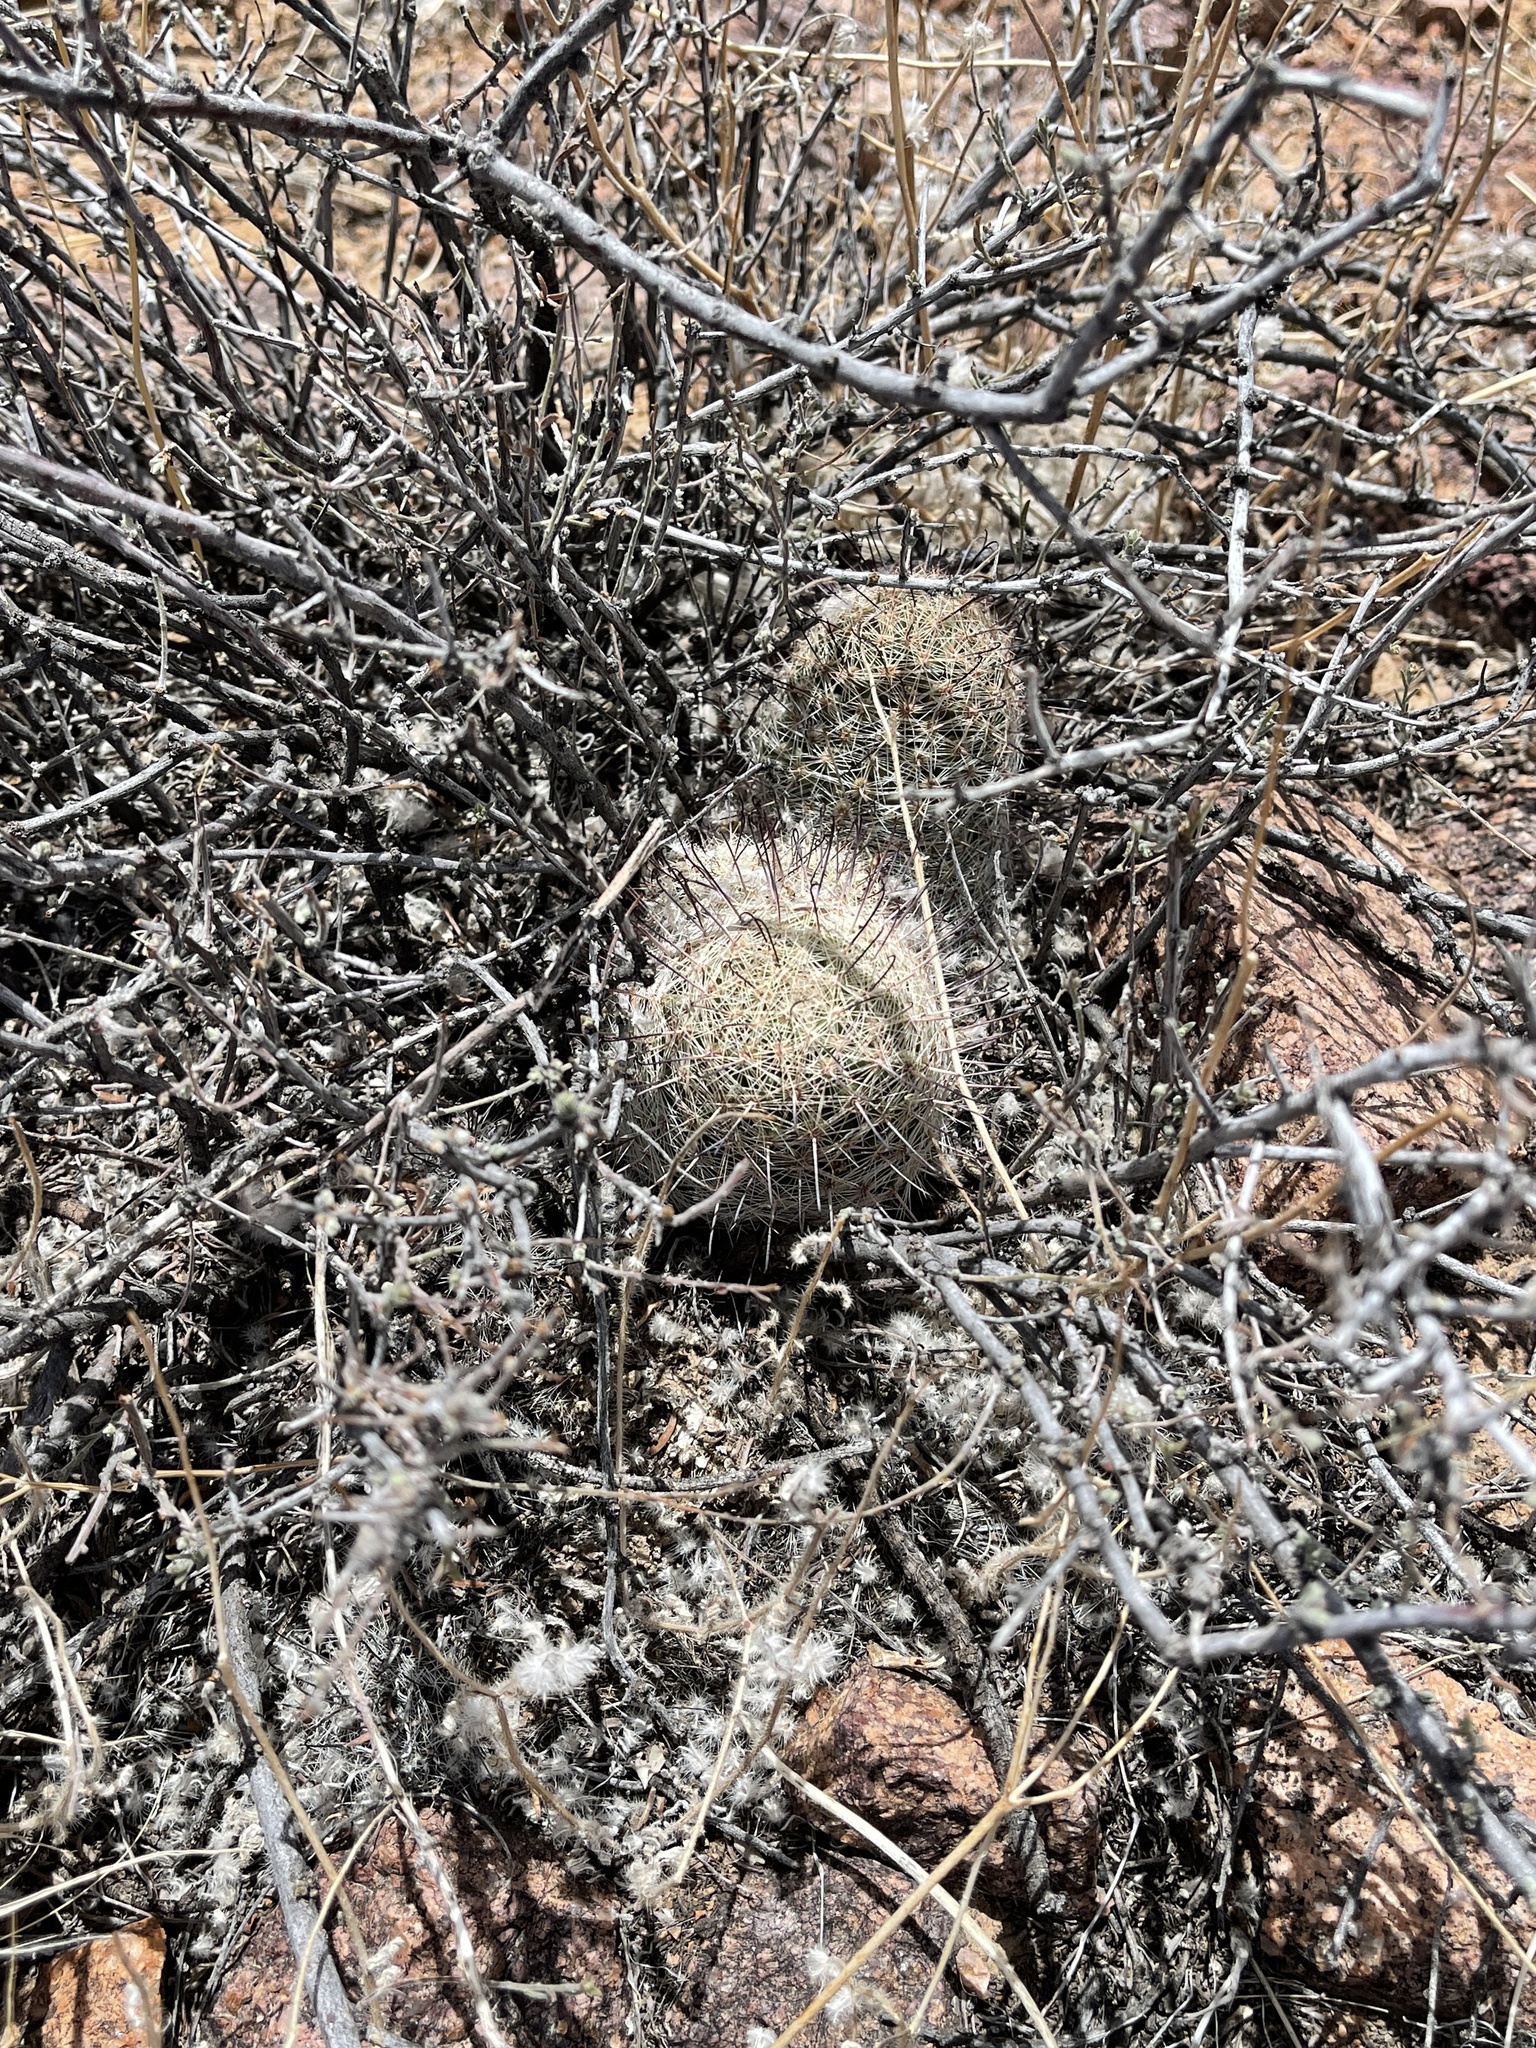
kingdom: Plantae
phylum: Tracheophyta
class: Magnoliopsida
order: Caryophyllales
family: Cactaceae
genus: Cochemiea
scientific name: Cochemiea grahamii
